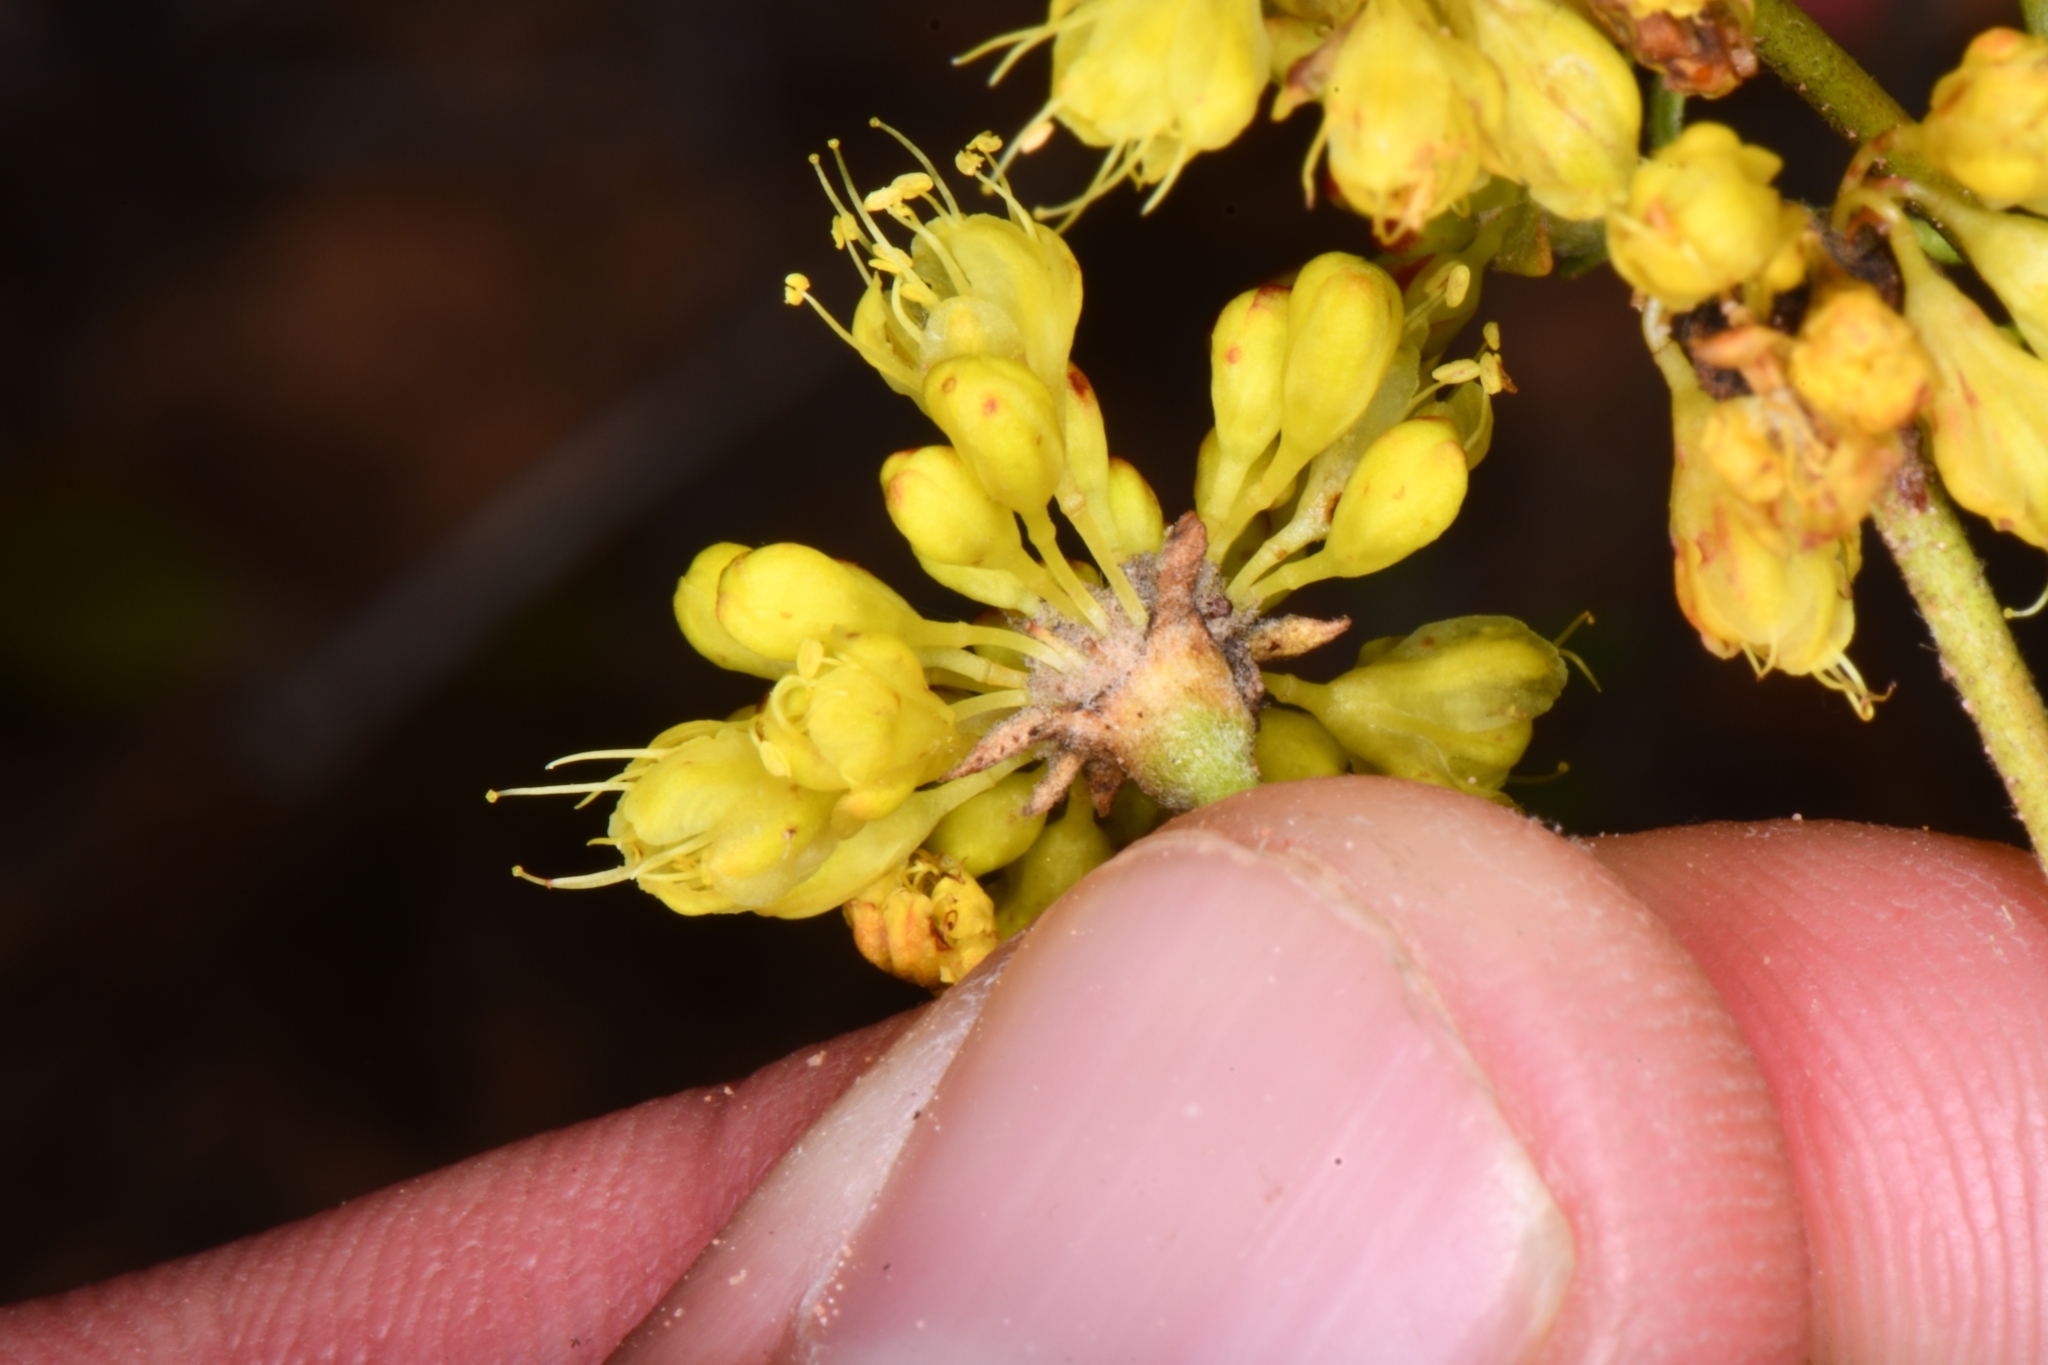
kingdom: Plantae
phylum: Tracheophyta
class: Magnoliopsida
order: Caryophyllales
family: Polygonaceae
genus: Eriogonum
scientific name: Eriogonum umbellatum
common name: Sulfur-buckwheat
